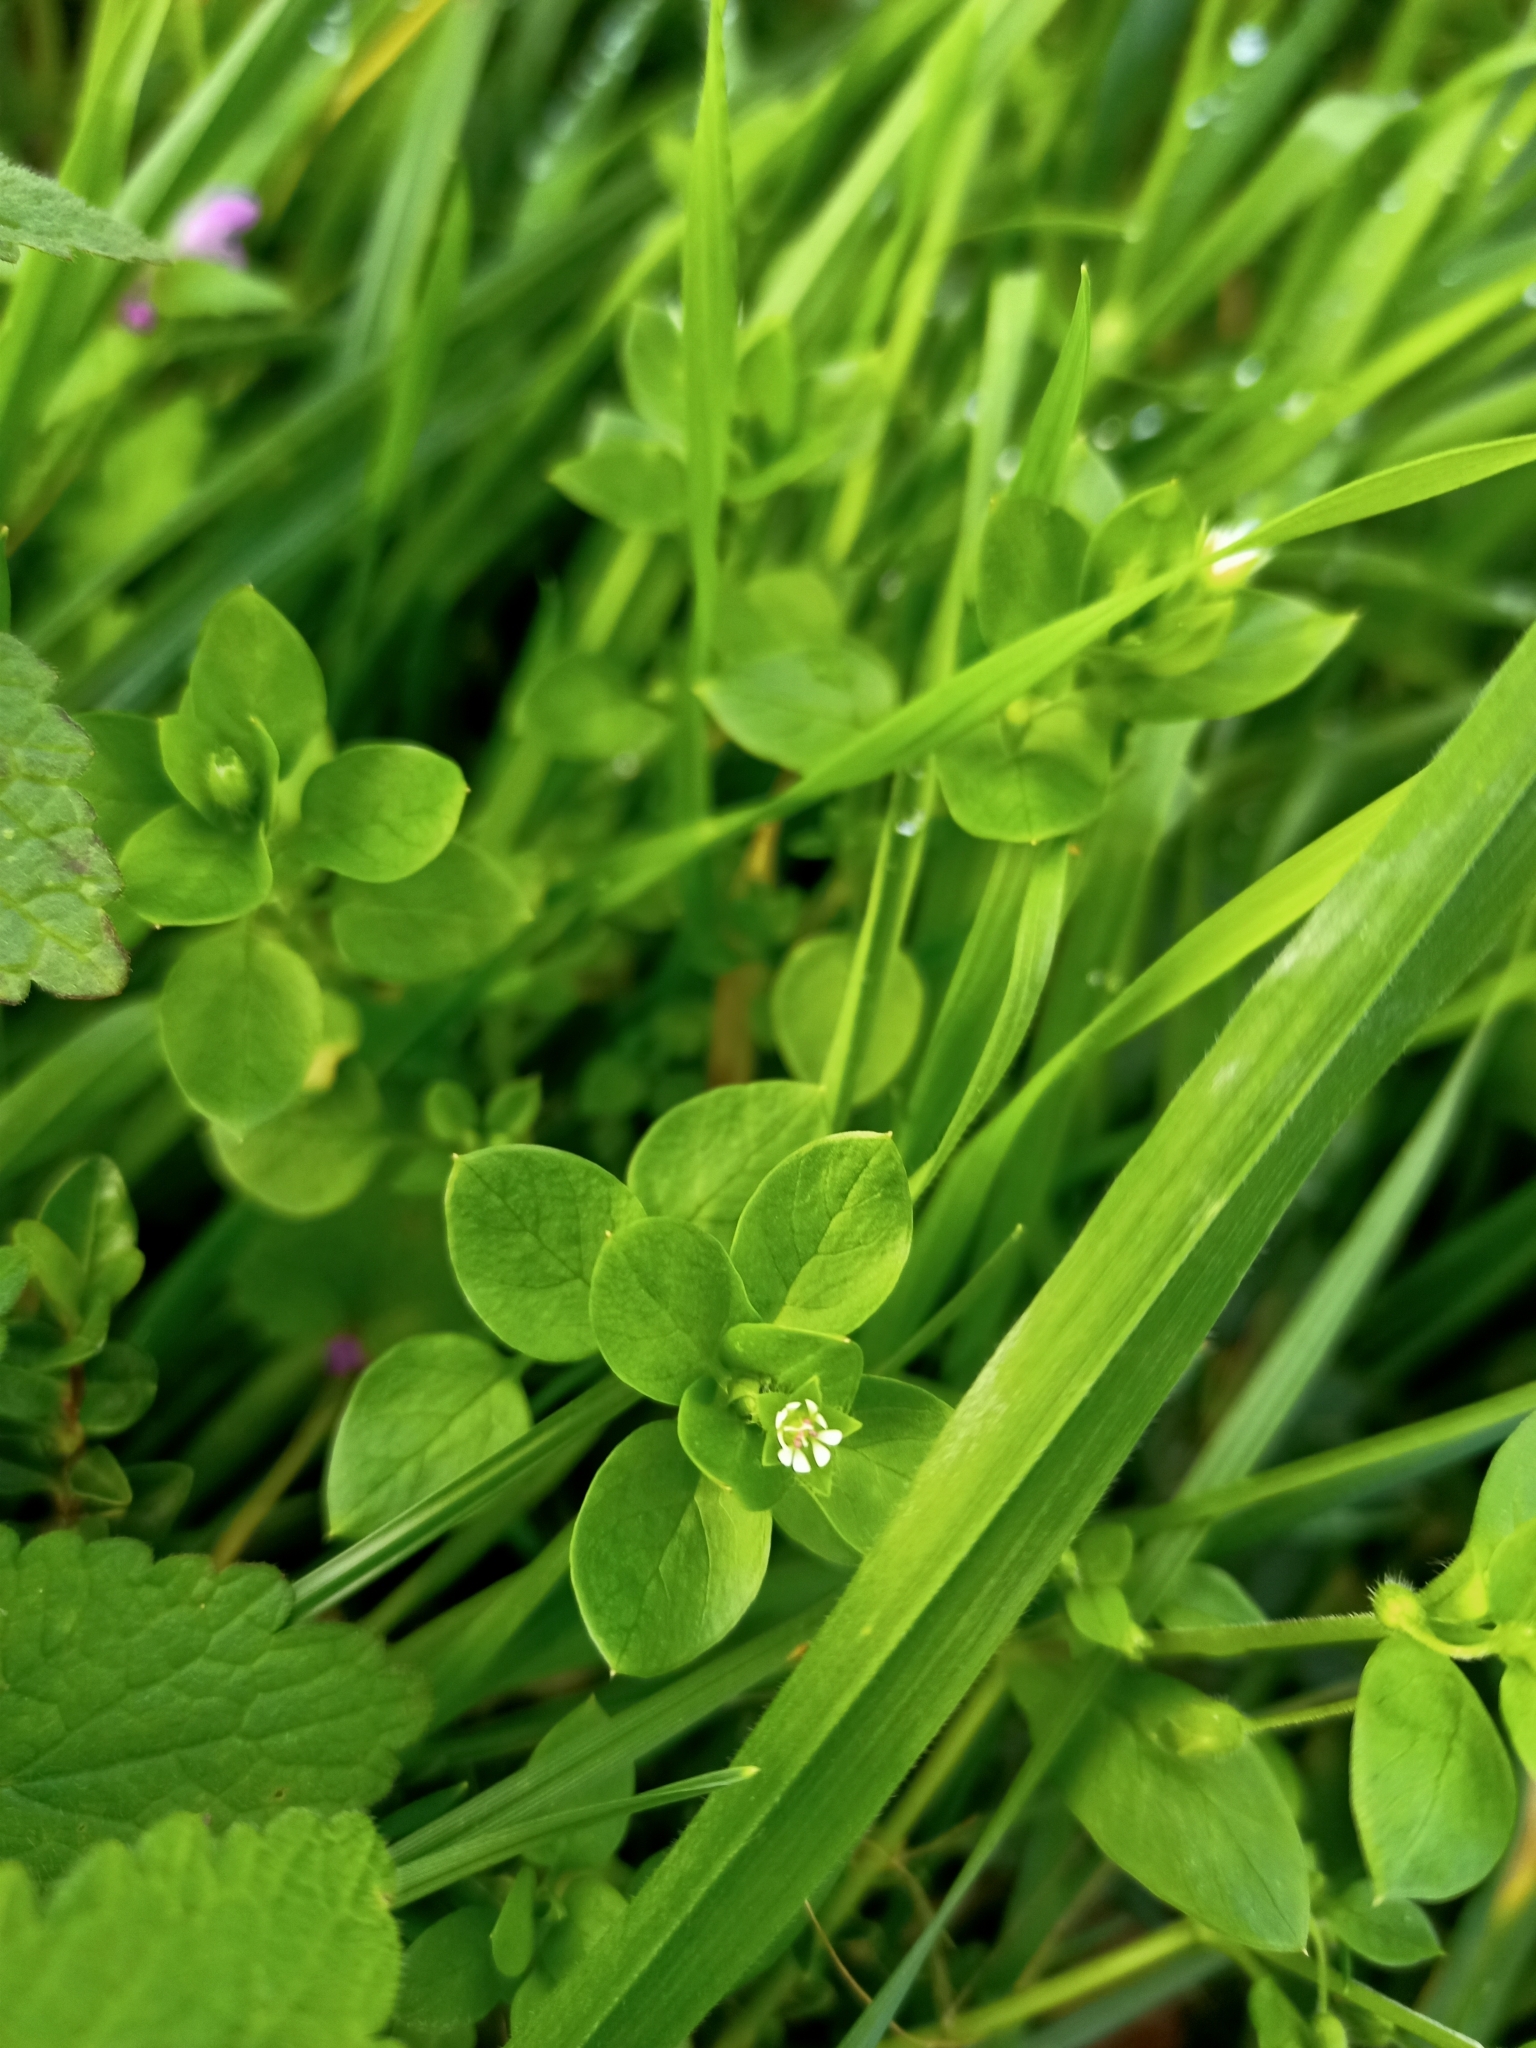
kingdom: Plantae
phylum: Tracheophyta
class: Magnoliopsida
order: Caryophyllales
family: Caryophyllaceae
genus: Stellaria
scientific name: Stellaria media
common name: Common chickweed
